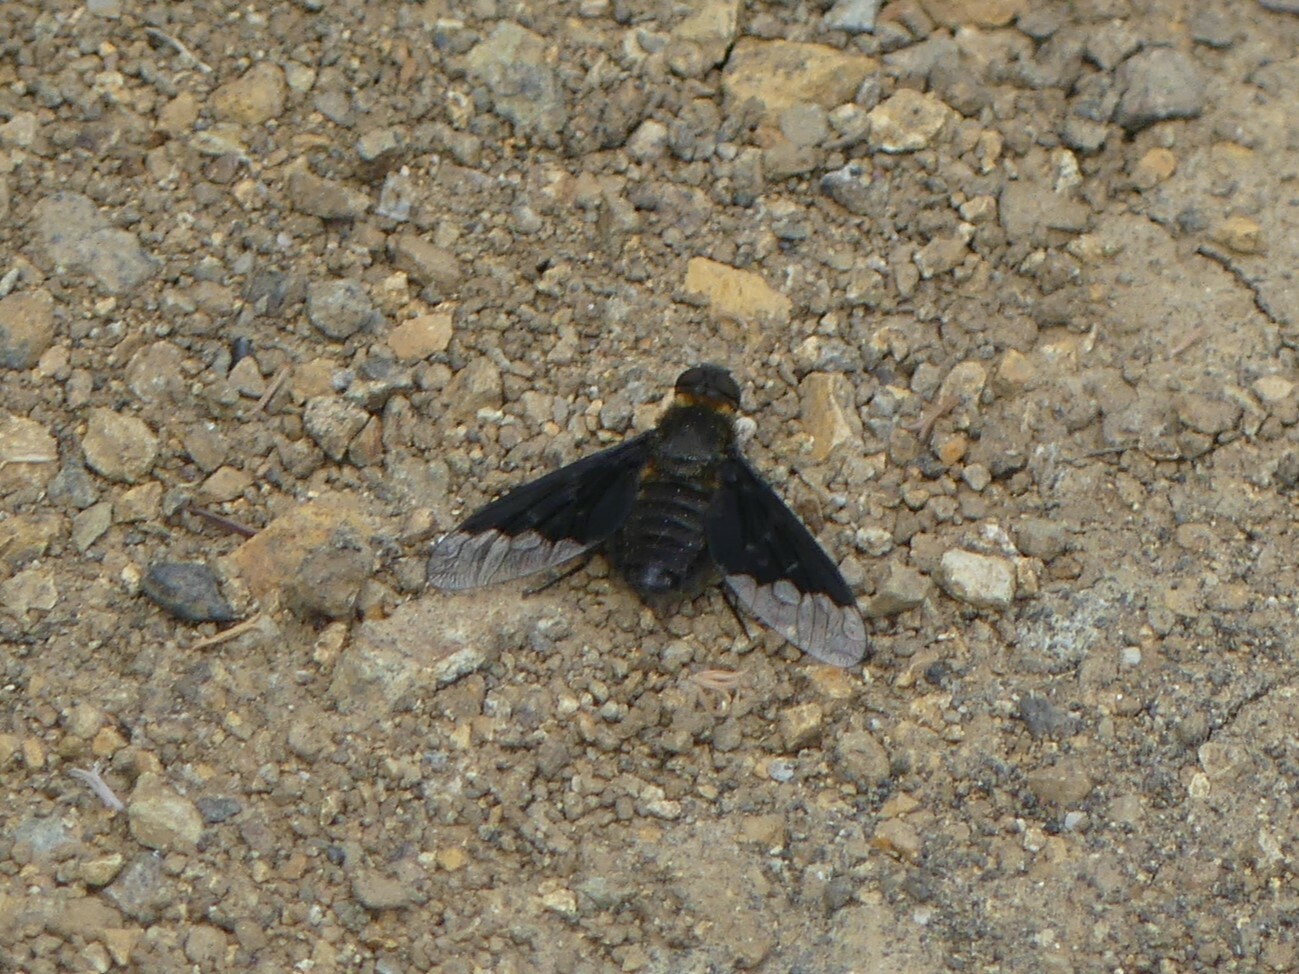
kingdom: Animalia
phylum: Arthropoda
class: Insecta
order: Diptera
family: Bombyliidae
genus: Hemipenthes
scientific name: Hemipenthes morio
